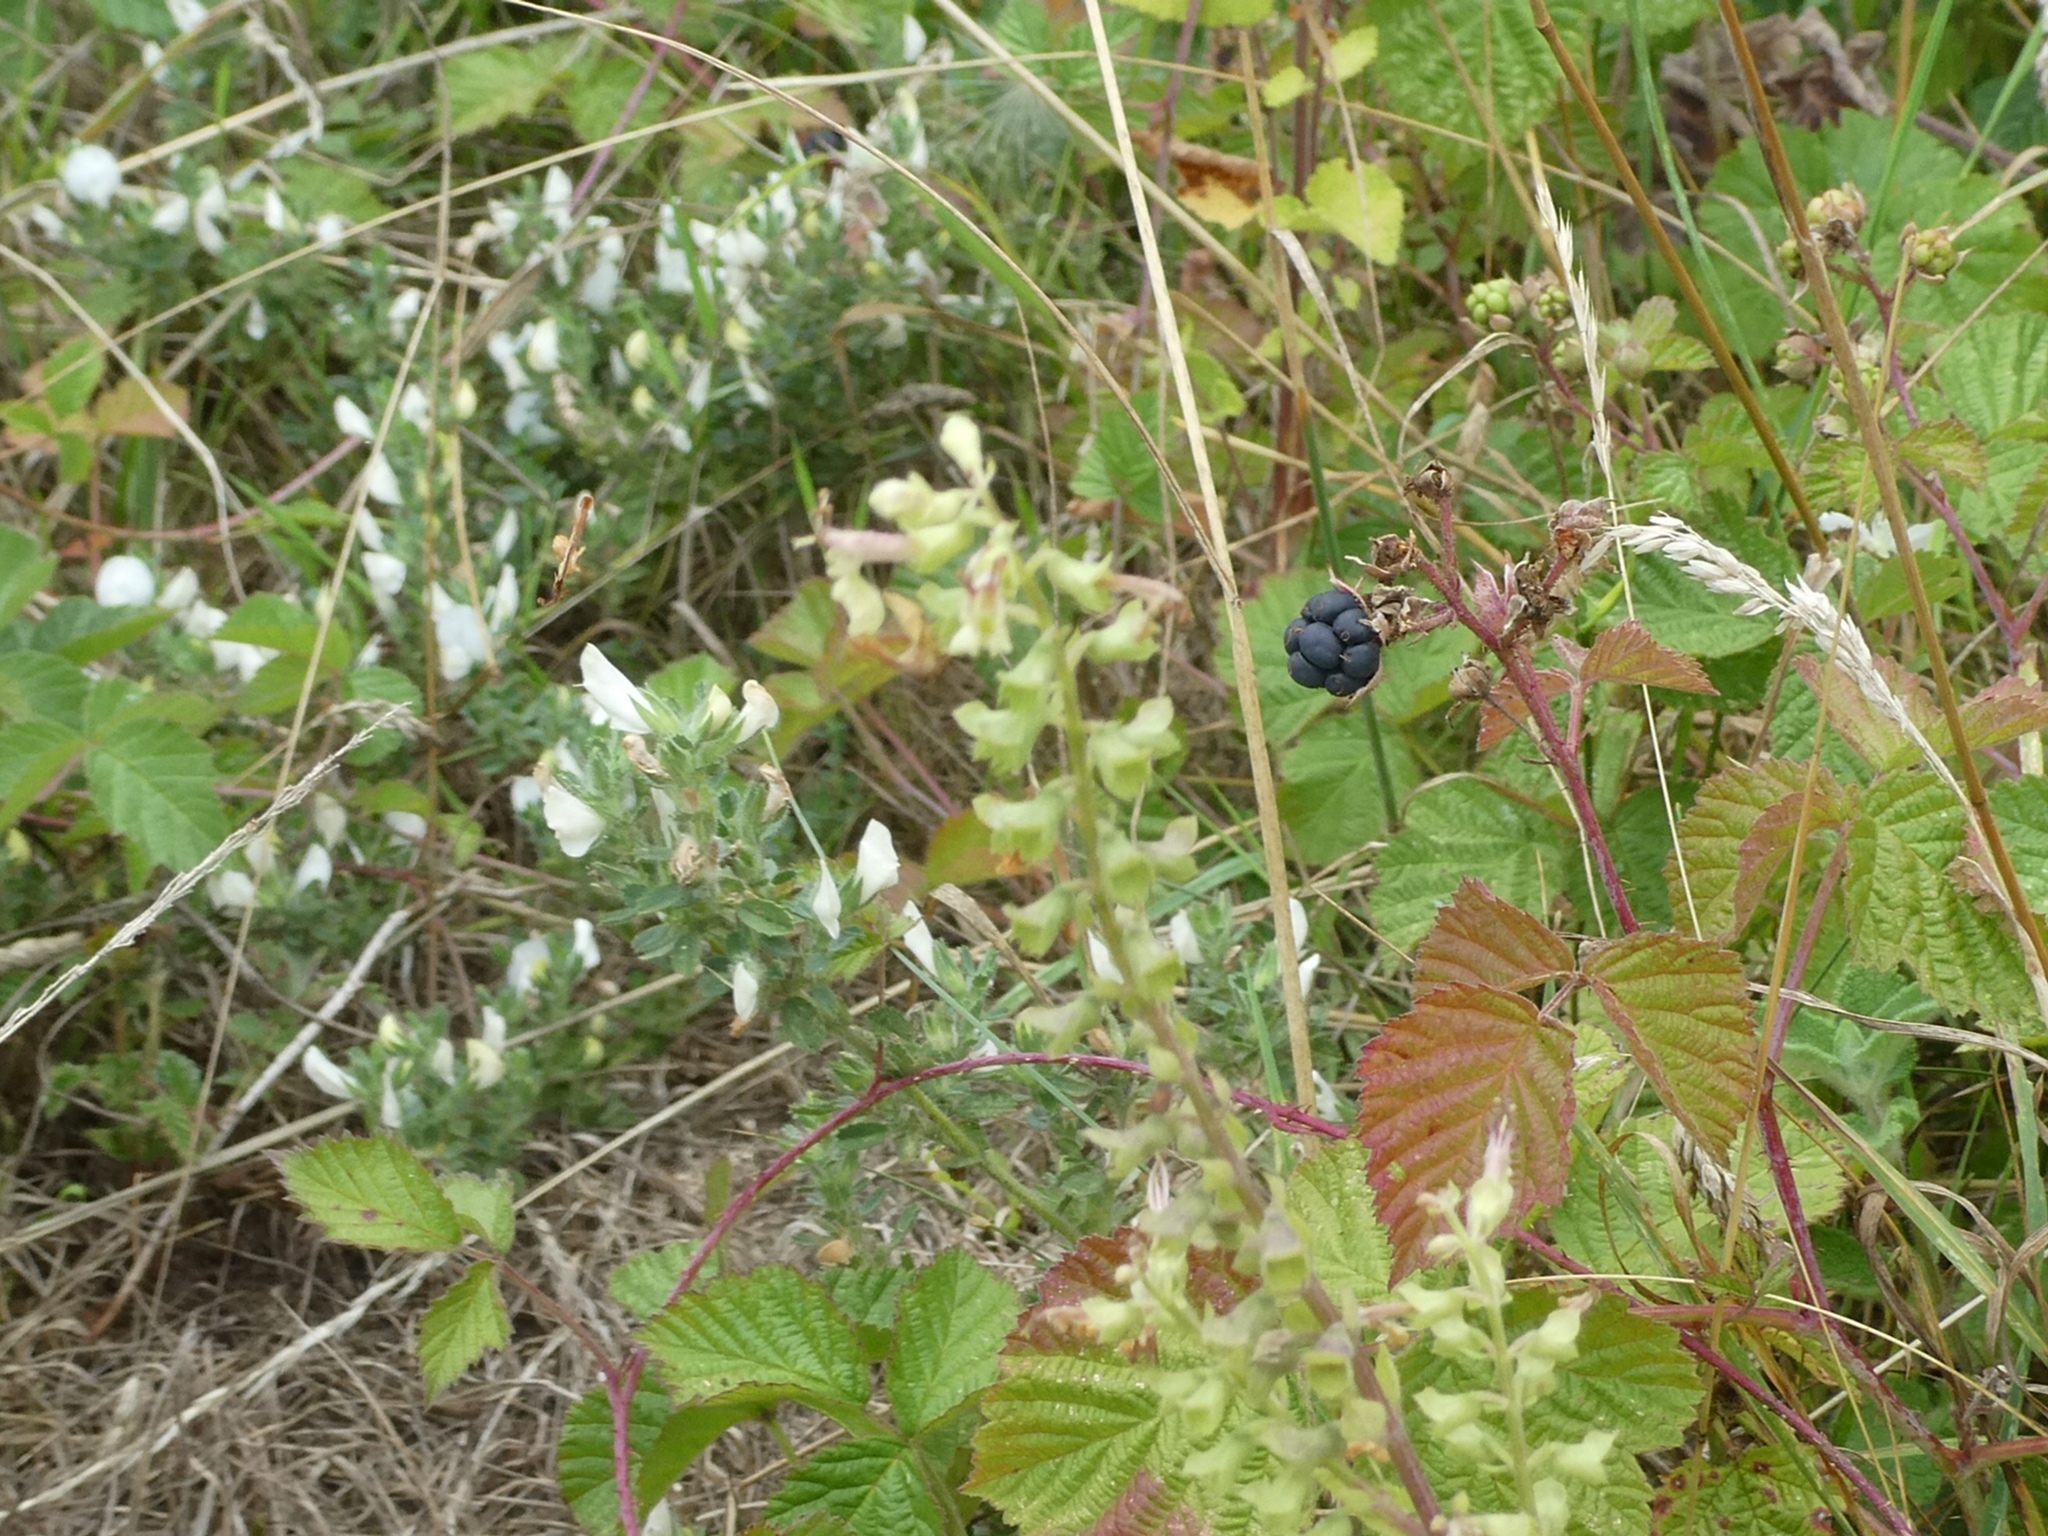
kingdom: Plantae
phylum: Tracheophyta
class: Magnoliopsida
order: Lamiales
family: Lamiaceae
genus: Teucrium
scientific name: Teucrium scorodonia
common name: Woodland germander
